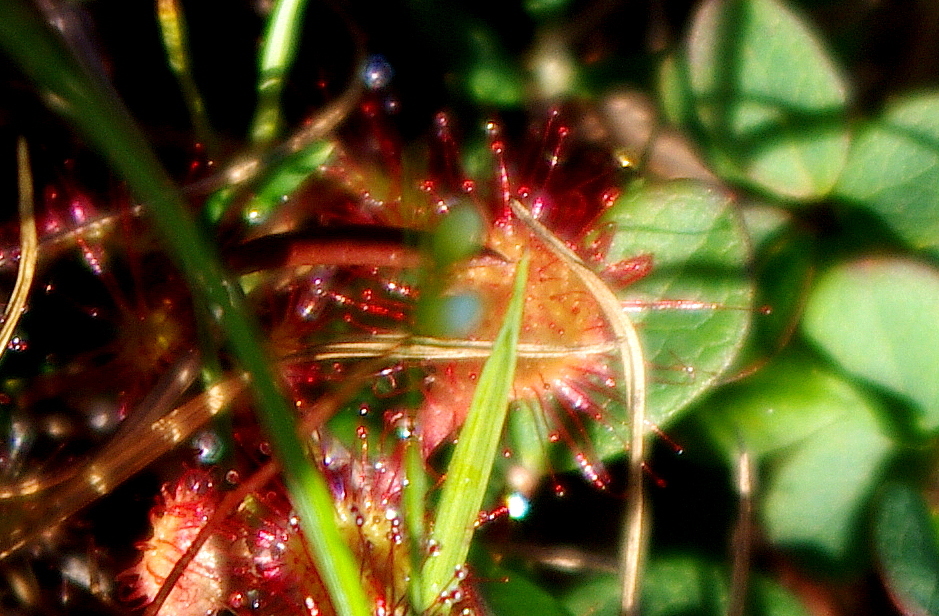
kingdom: Plantae
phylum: Tracheophyta
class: Magnoliopsida
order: Caryophyllales
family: Droseraceae
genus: Drosera
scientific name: Drosera obovata
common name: Ivan's paddle
